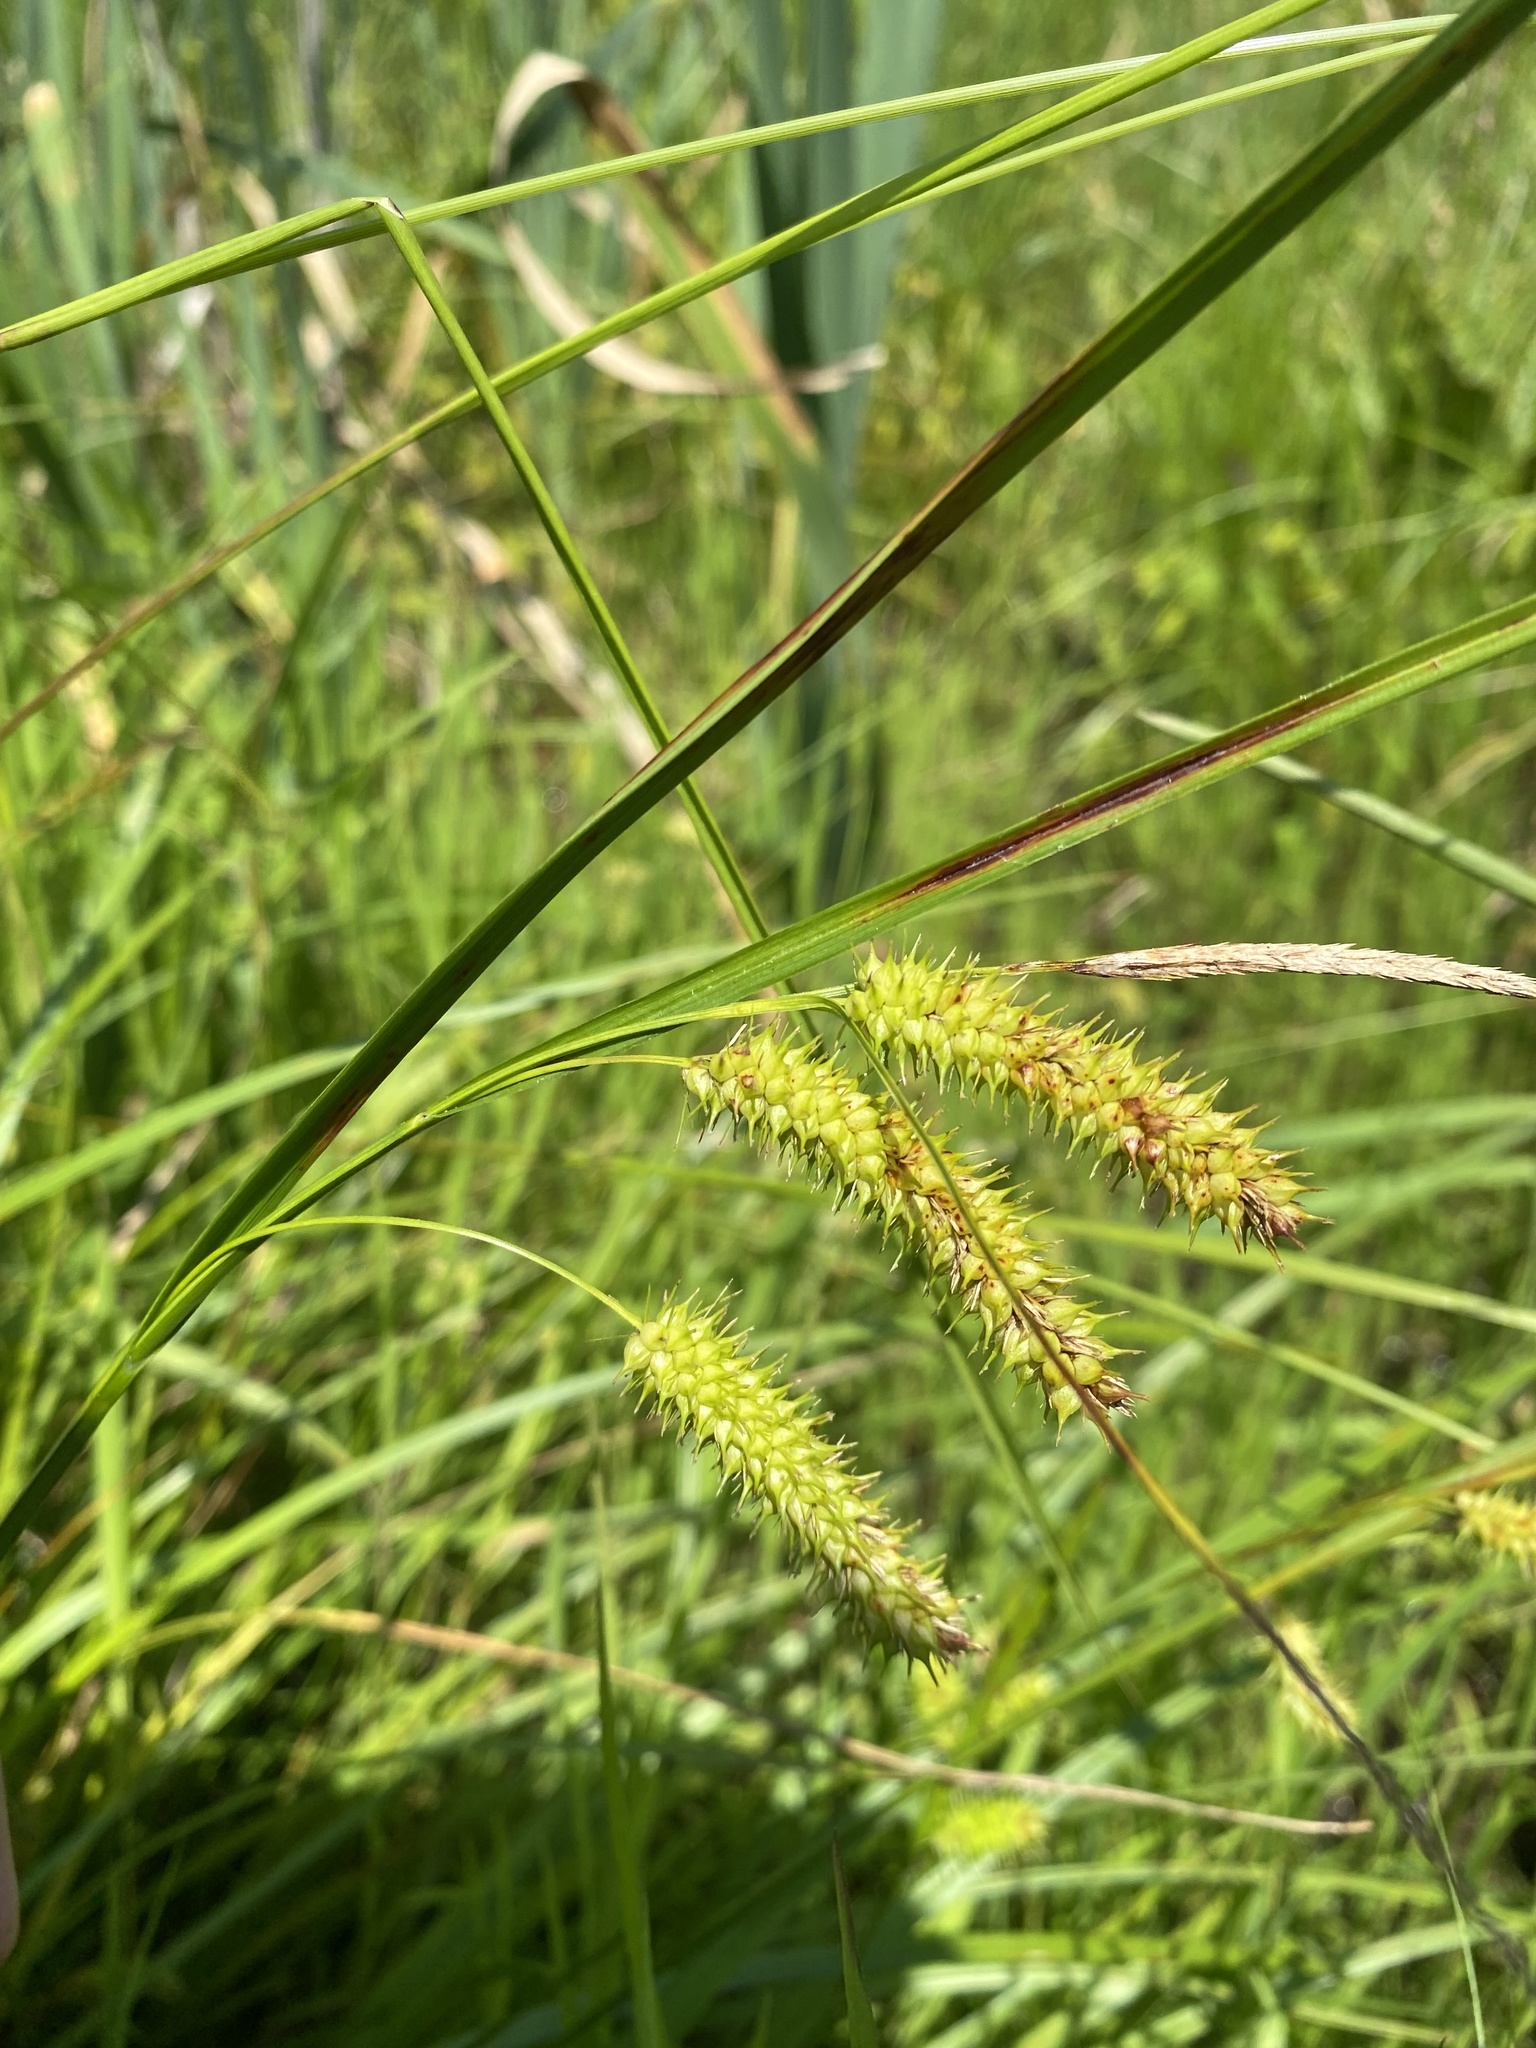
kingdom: Plantae
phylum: Tracheophyta
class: Liliopsida
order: Poales
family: Cyperaceae
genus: Carex
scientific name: Carex hystericina
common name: Bottlebrush sedge
